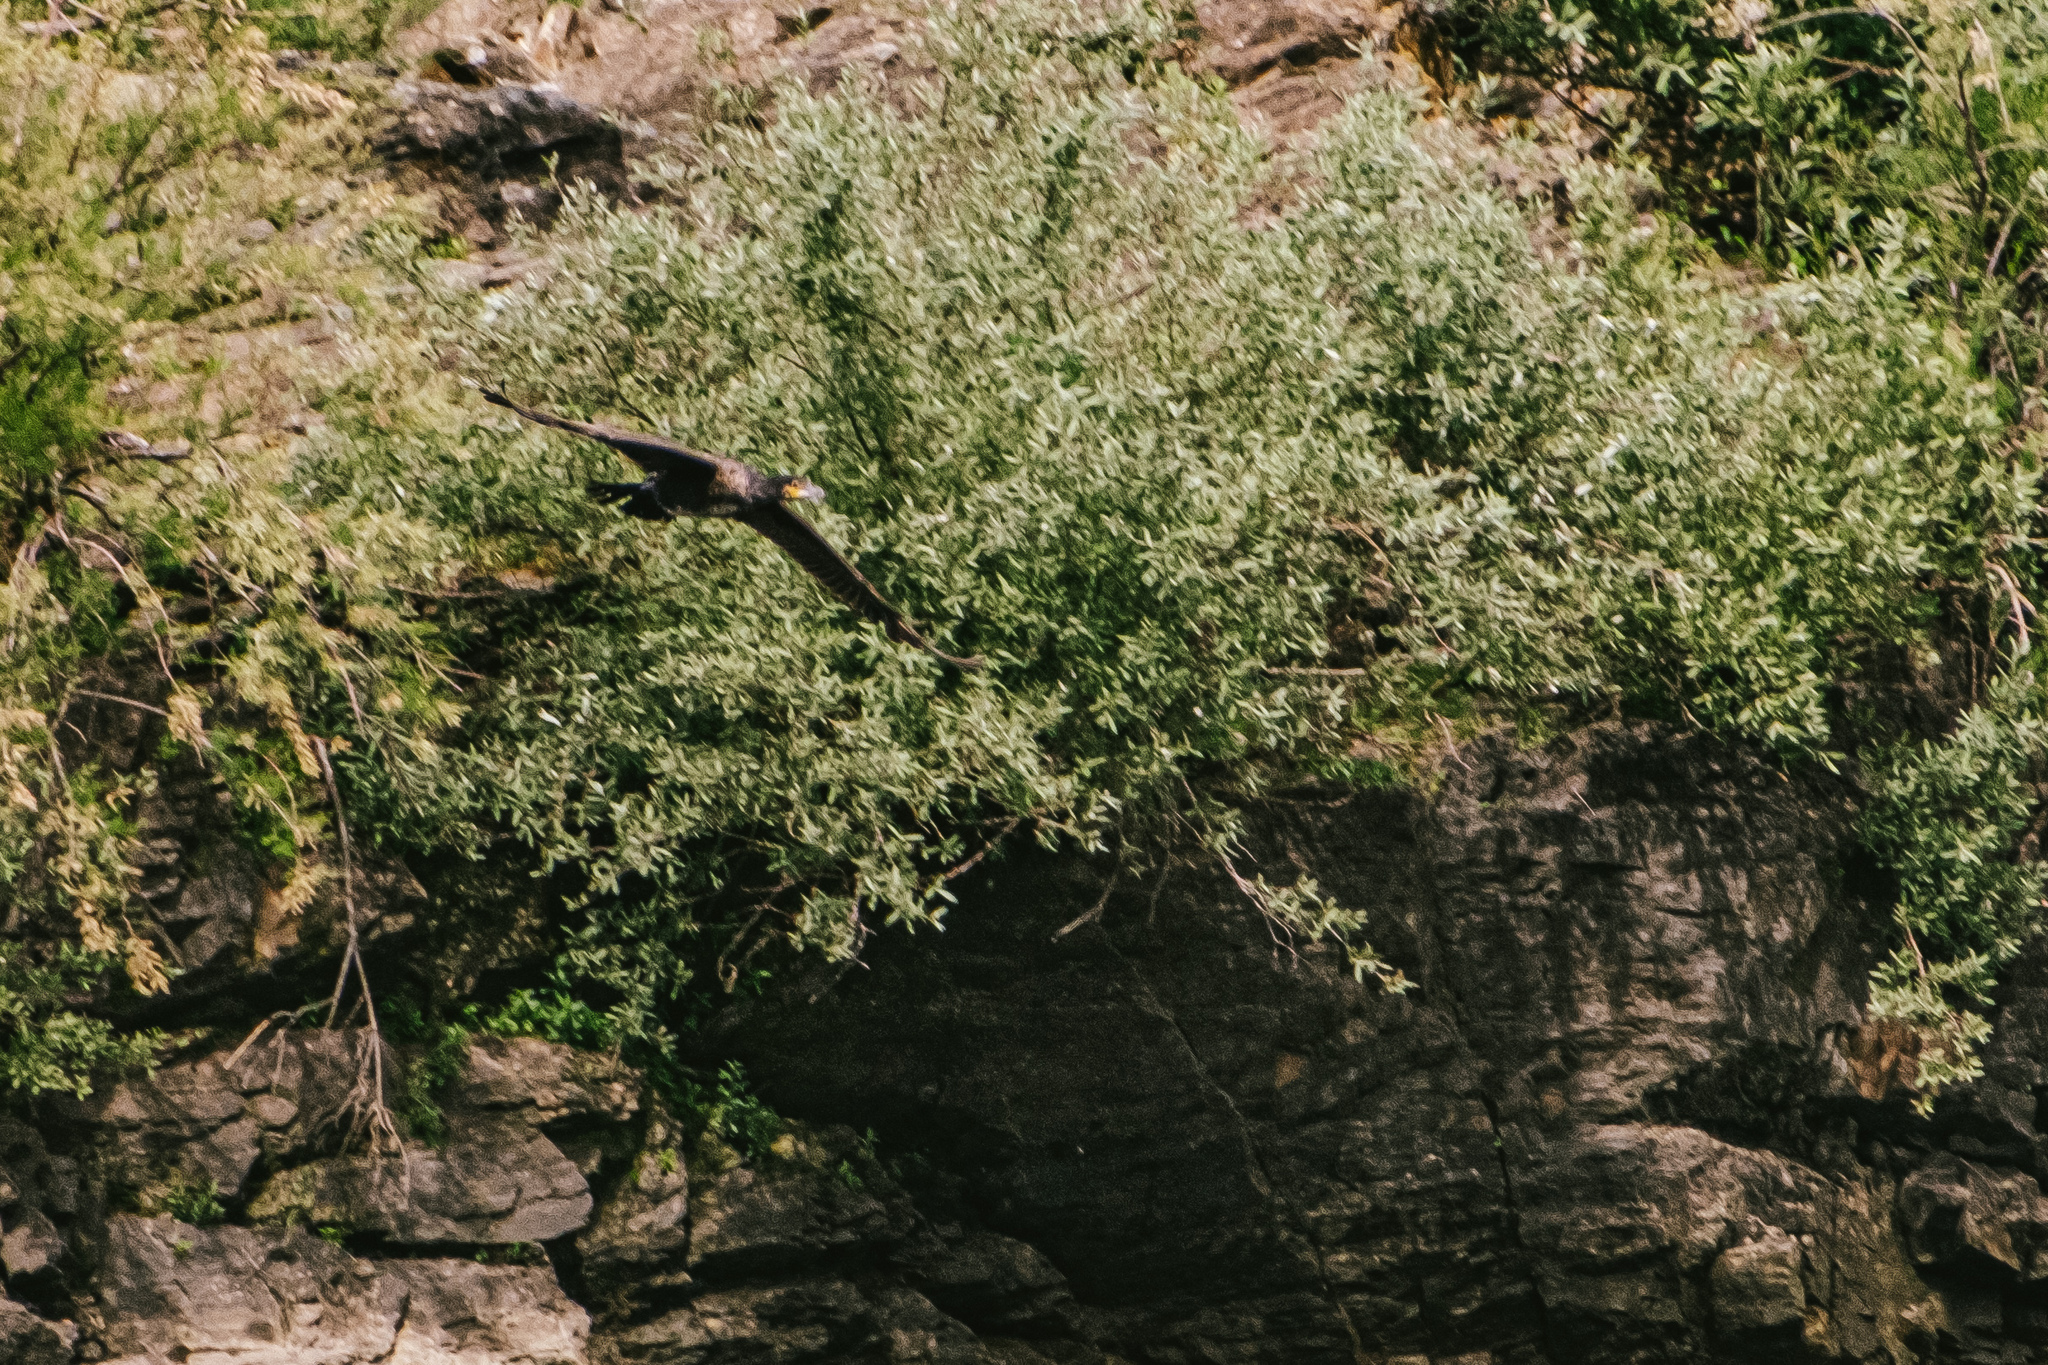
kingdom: Animalia
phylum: Chordata
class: Aves
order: Suliformes
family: Phalacrocoracidae
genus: Phalacrocorax
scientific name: Phalacrocorax carbo
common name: Great cormorant
